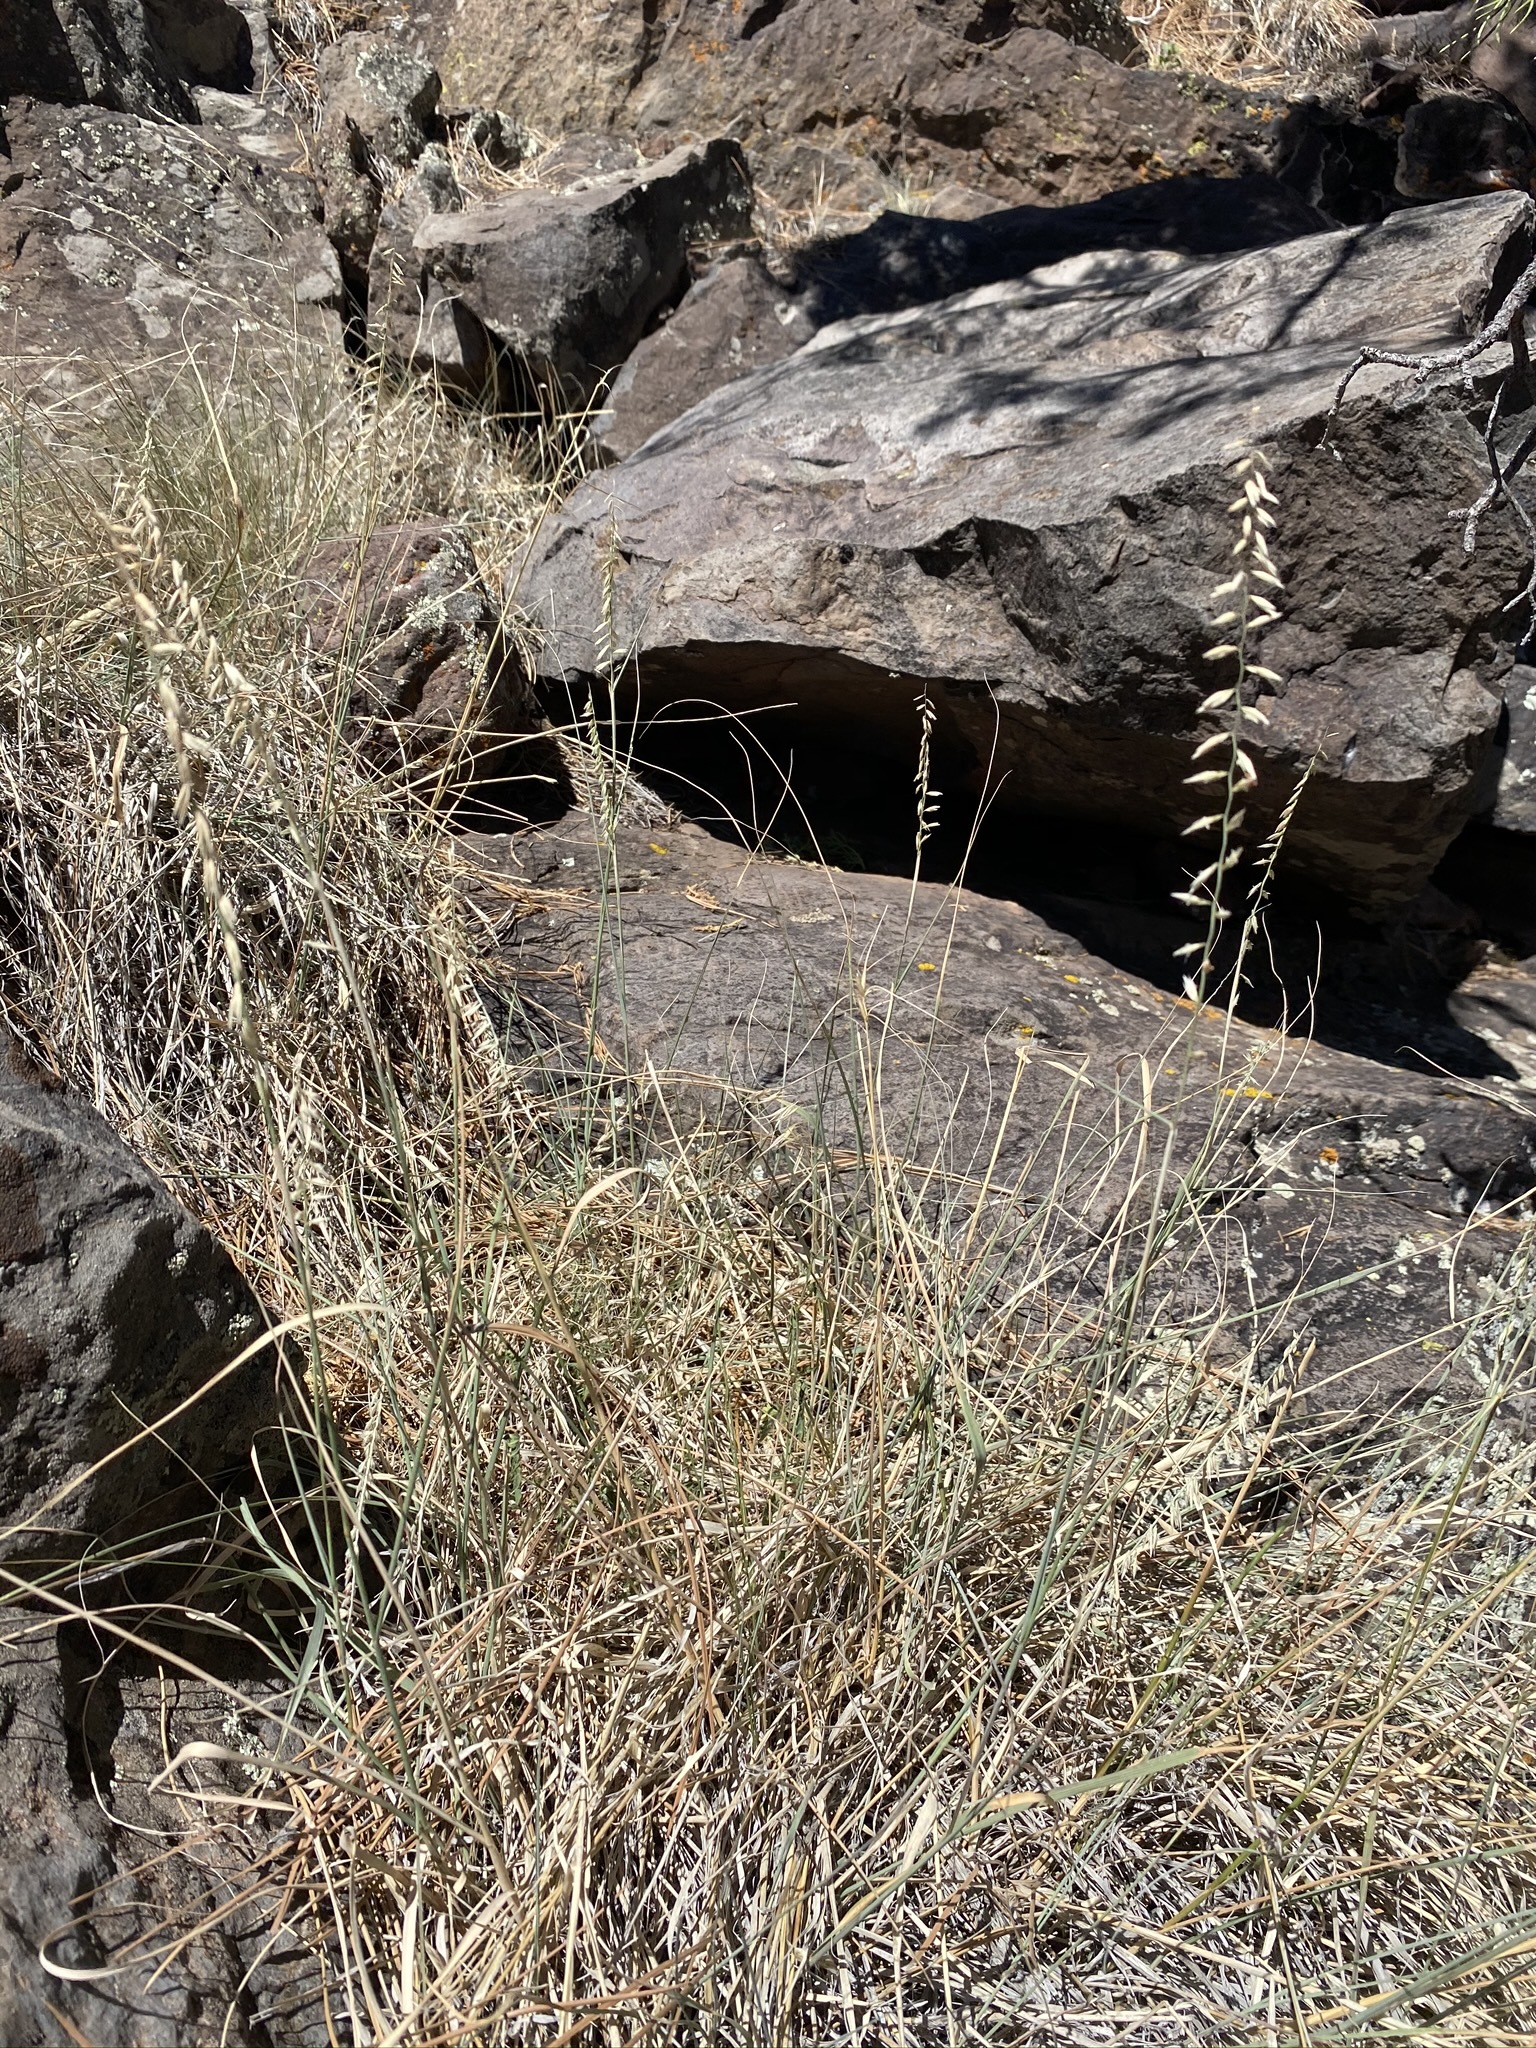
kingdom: Plantae
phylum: Tracheophyta
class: Liliopsida
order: Poales
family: Poaceae
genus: Bouteloua
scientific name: Bouteloua curtipendula
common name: Side-oats grama
